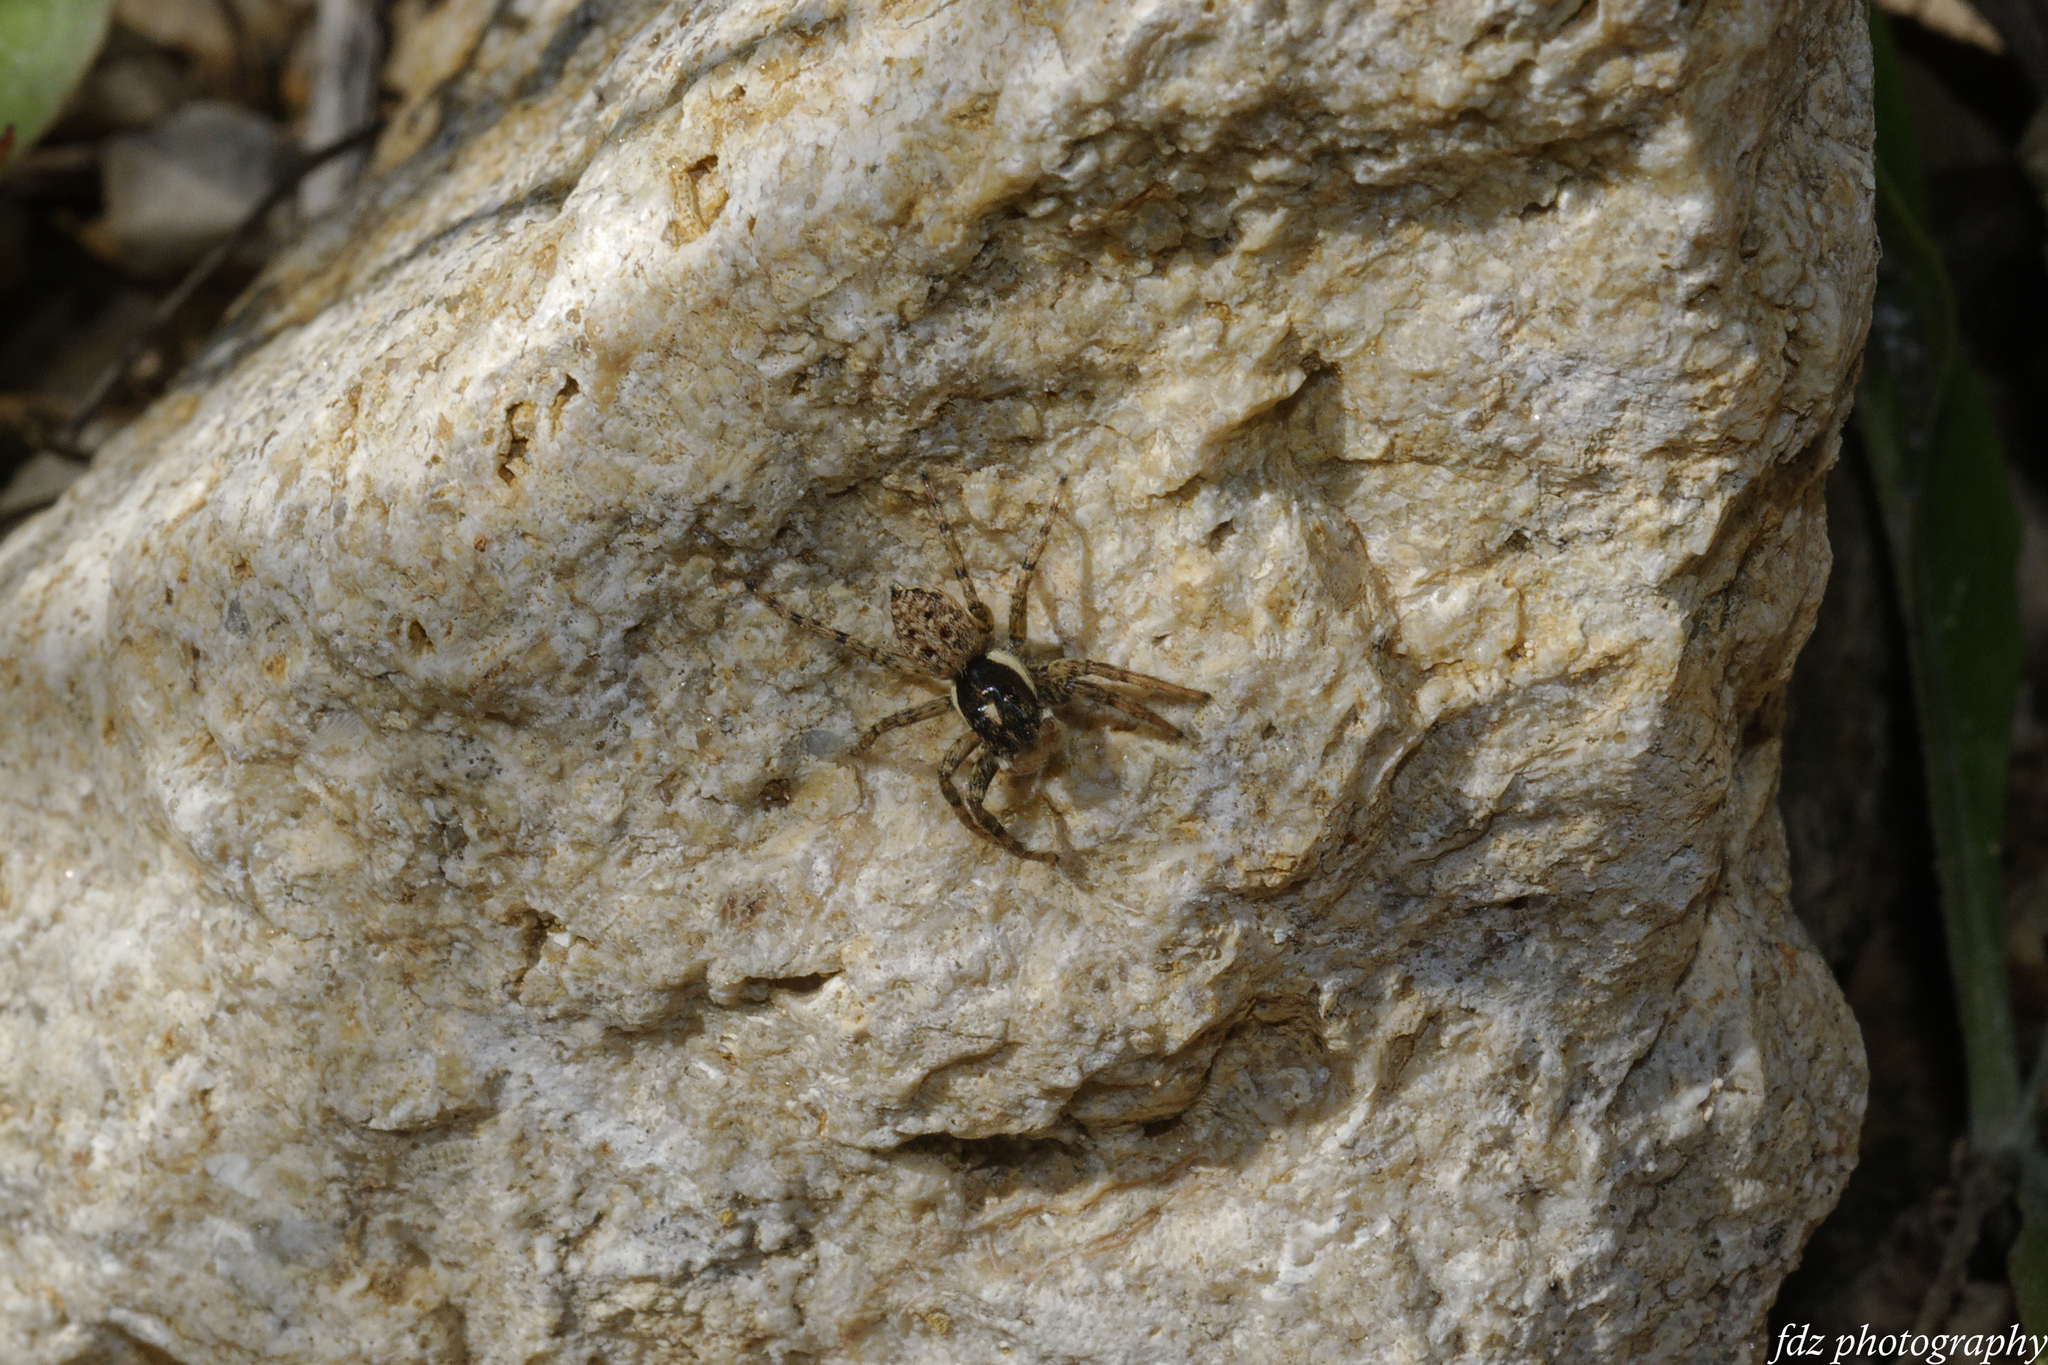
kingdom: Animalia
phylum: Arthropoda
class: Arachnida
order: Araneae
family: Salticidae
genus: Menemerus
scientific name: Menemerus semilimbatus
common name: Jumping spider
